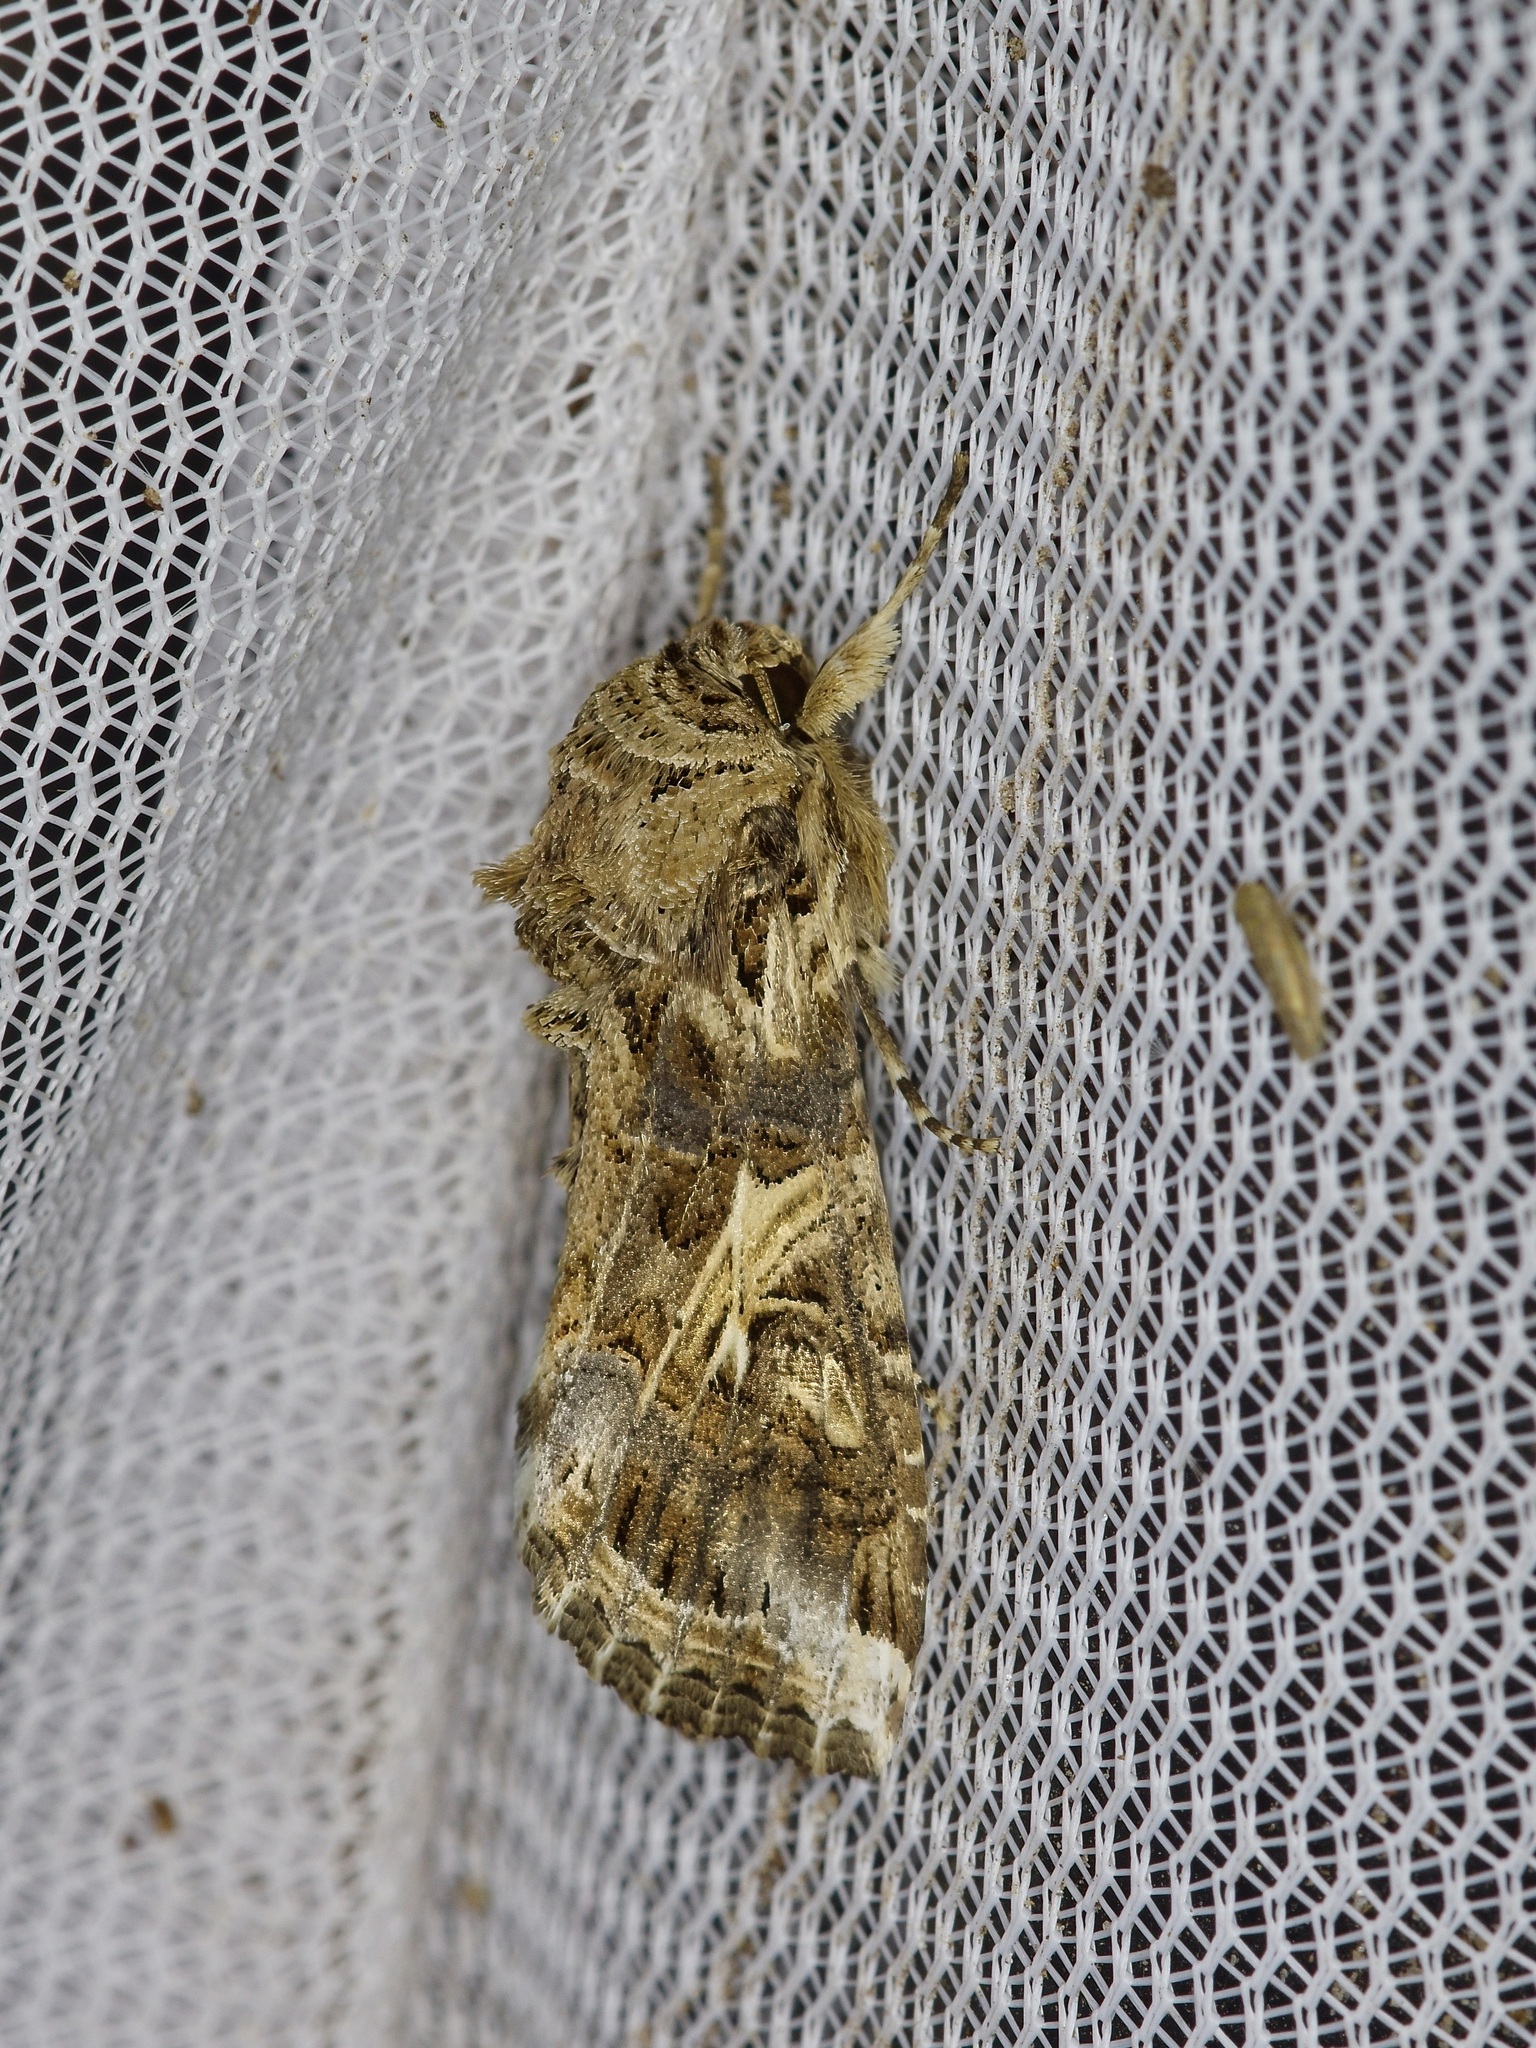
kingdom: Animalia
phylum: Arthropoda
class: Insecta
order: Lepidoptera
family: Noctuidae
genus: Spodoptera
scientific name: Spodoptera ornithogalli
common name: Yellow-striped armyworm
